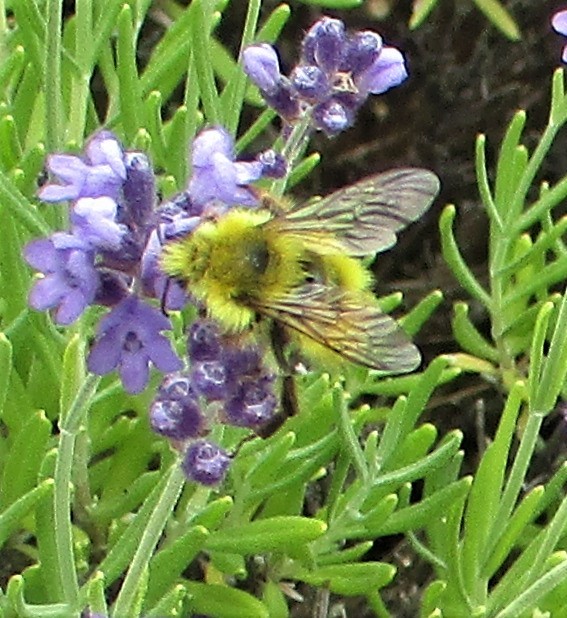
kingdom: Animalia
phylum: Arthropoda
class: Insecta
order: Hymenoptera
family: Apidae
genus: Bombus
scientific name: Bombus flavifrons
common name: Yellow head bumble bee
